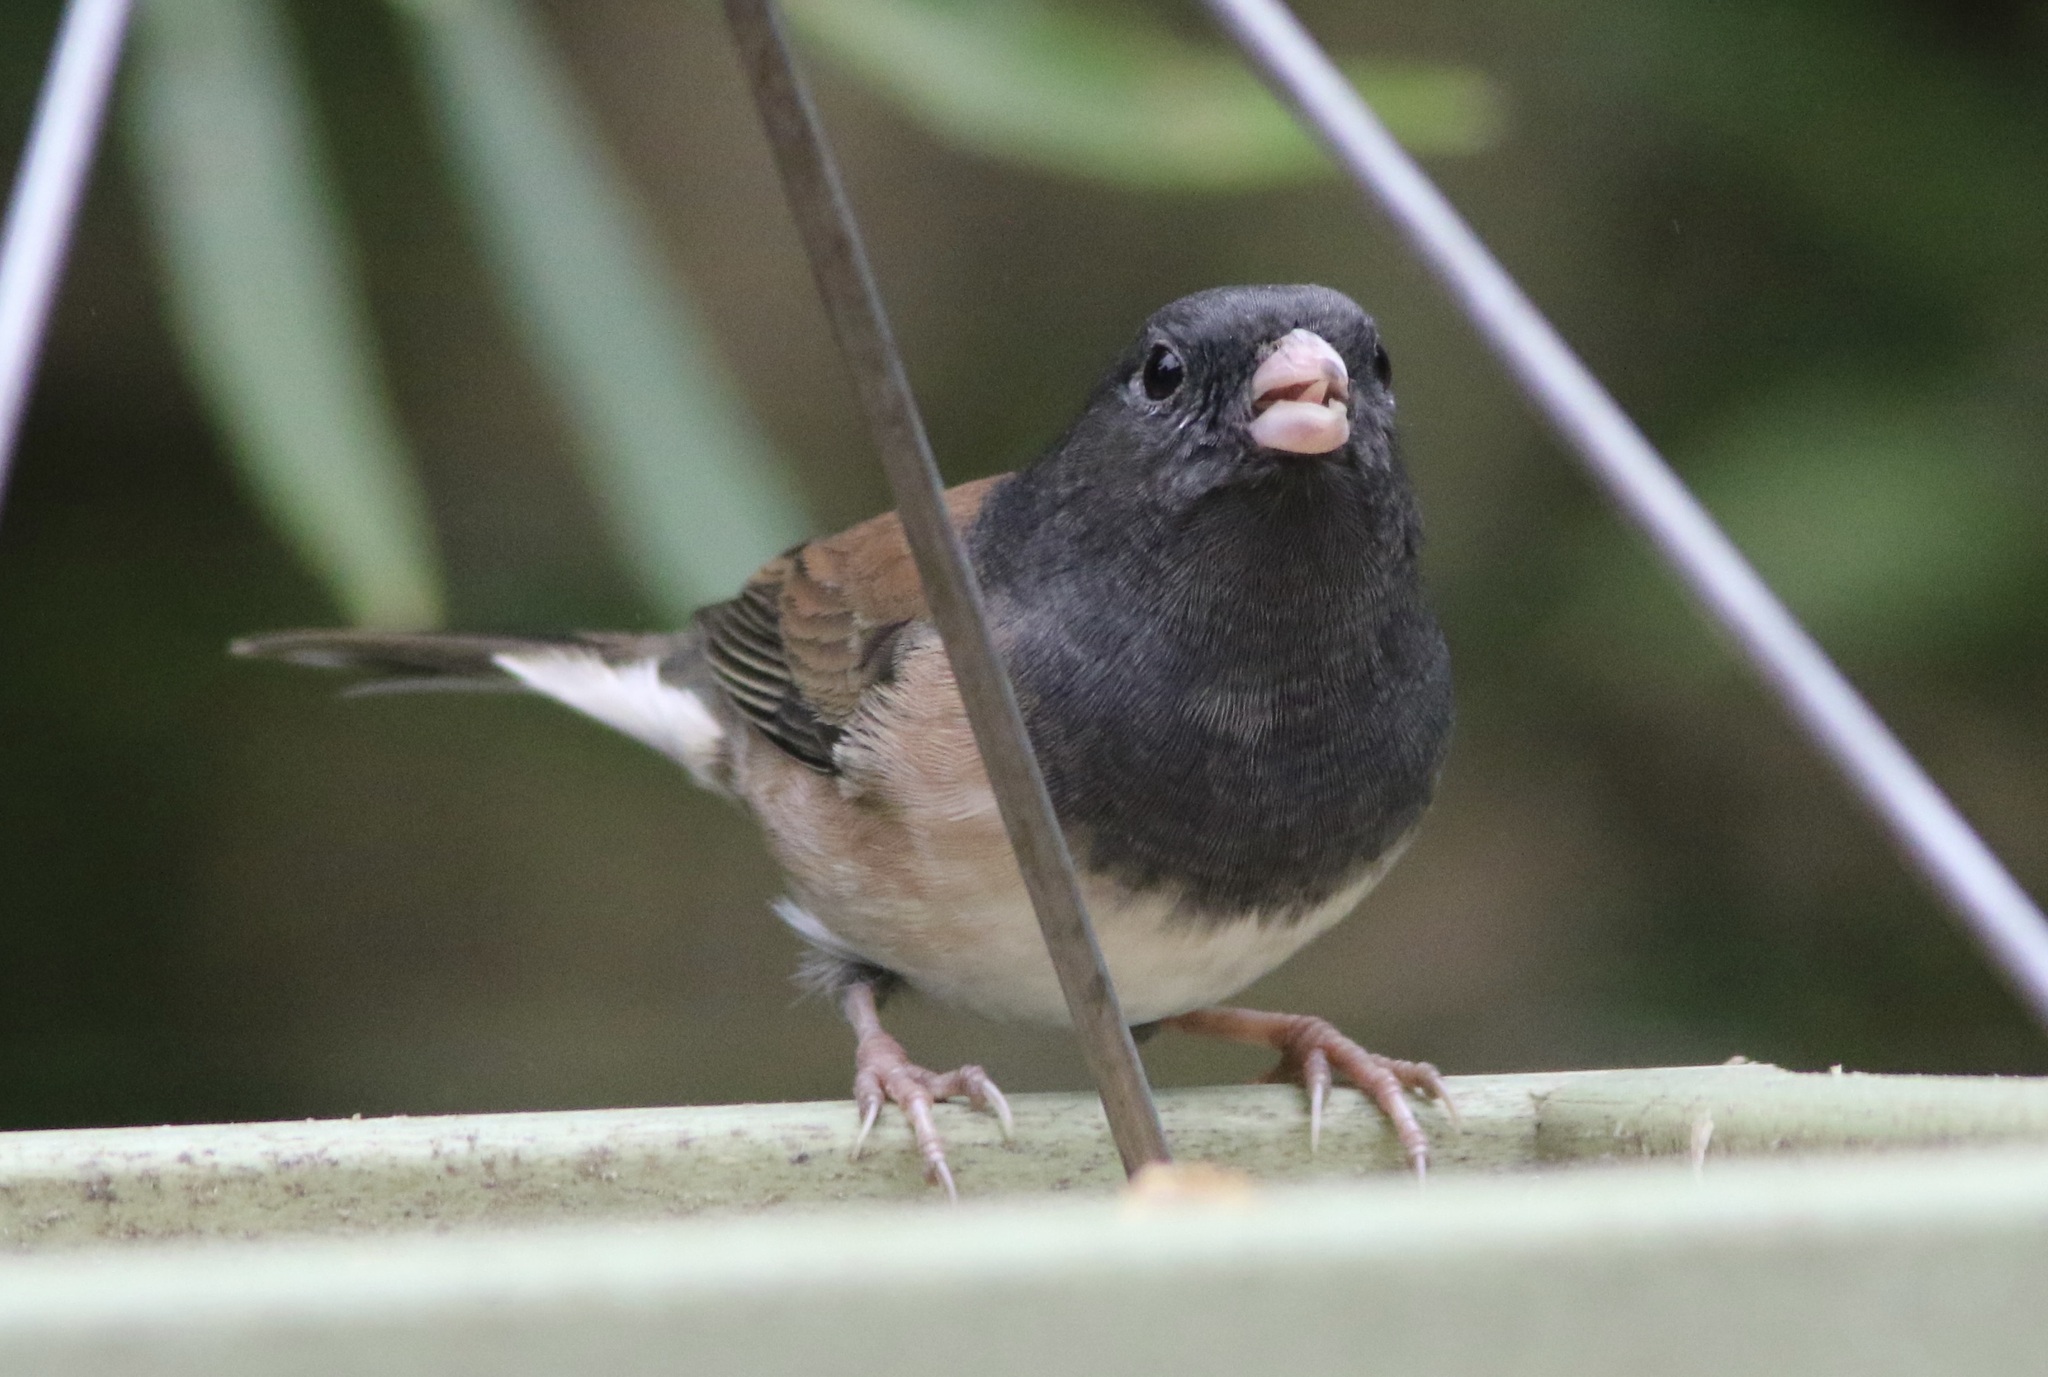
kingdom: Animalia
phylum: Chordata
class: Aves
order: Passeriformes
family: Passerellidae
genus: Junco
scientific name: Junco hyemalis
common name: Dark-eyed junco
